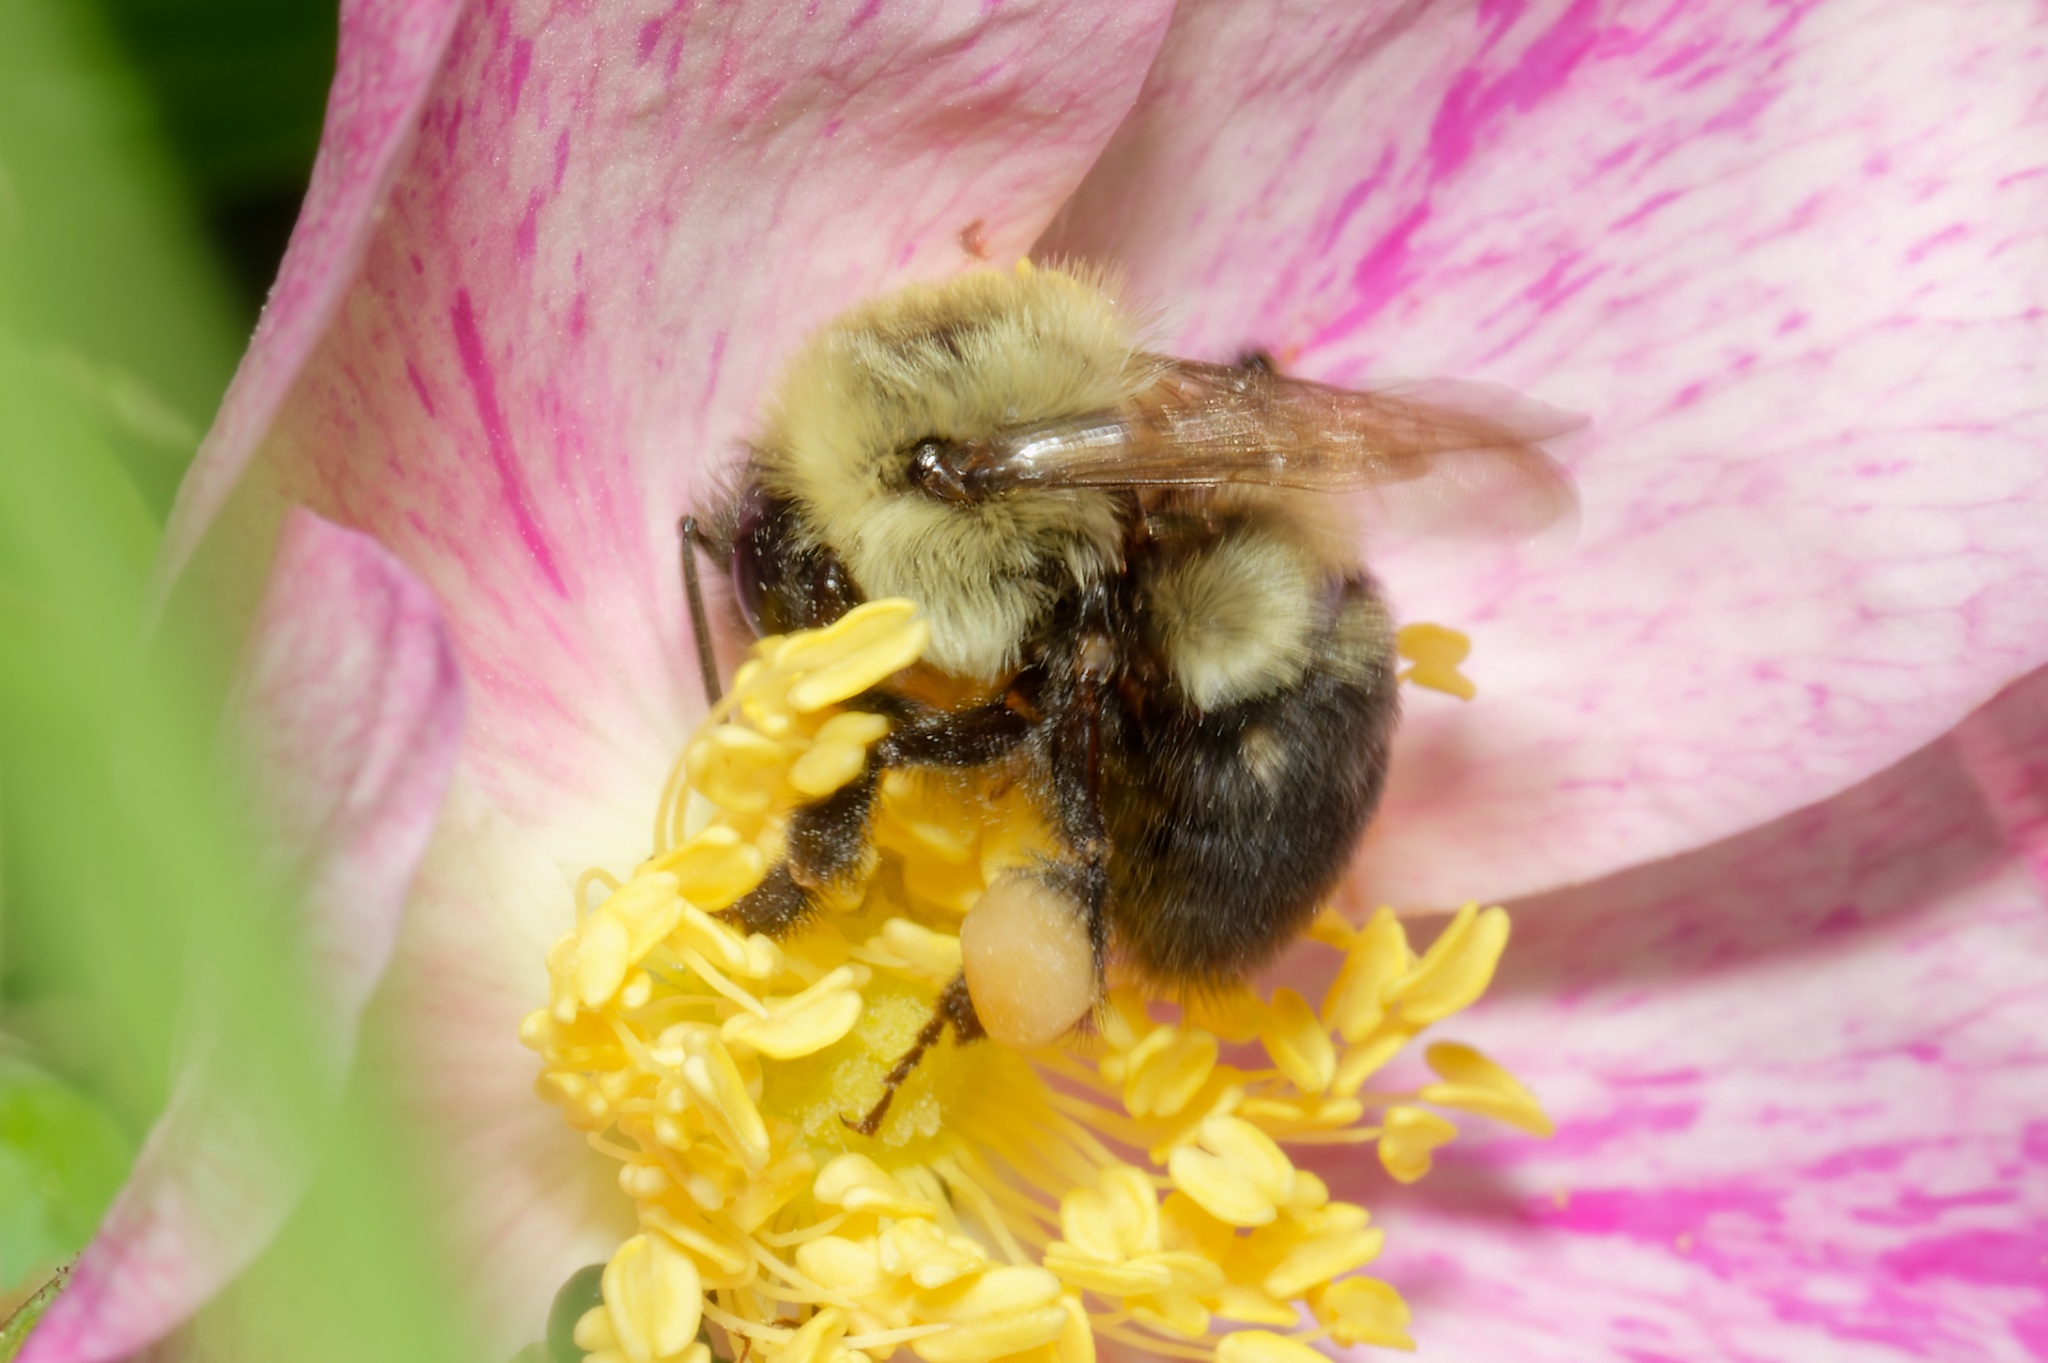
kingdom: Animalia
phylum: Arthropoda
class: Insecta
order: Hymenoptera
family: Apidae
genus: Bombus
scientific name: Bombus bimaculatus
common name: Two-spotted bumble bee
